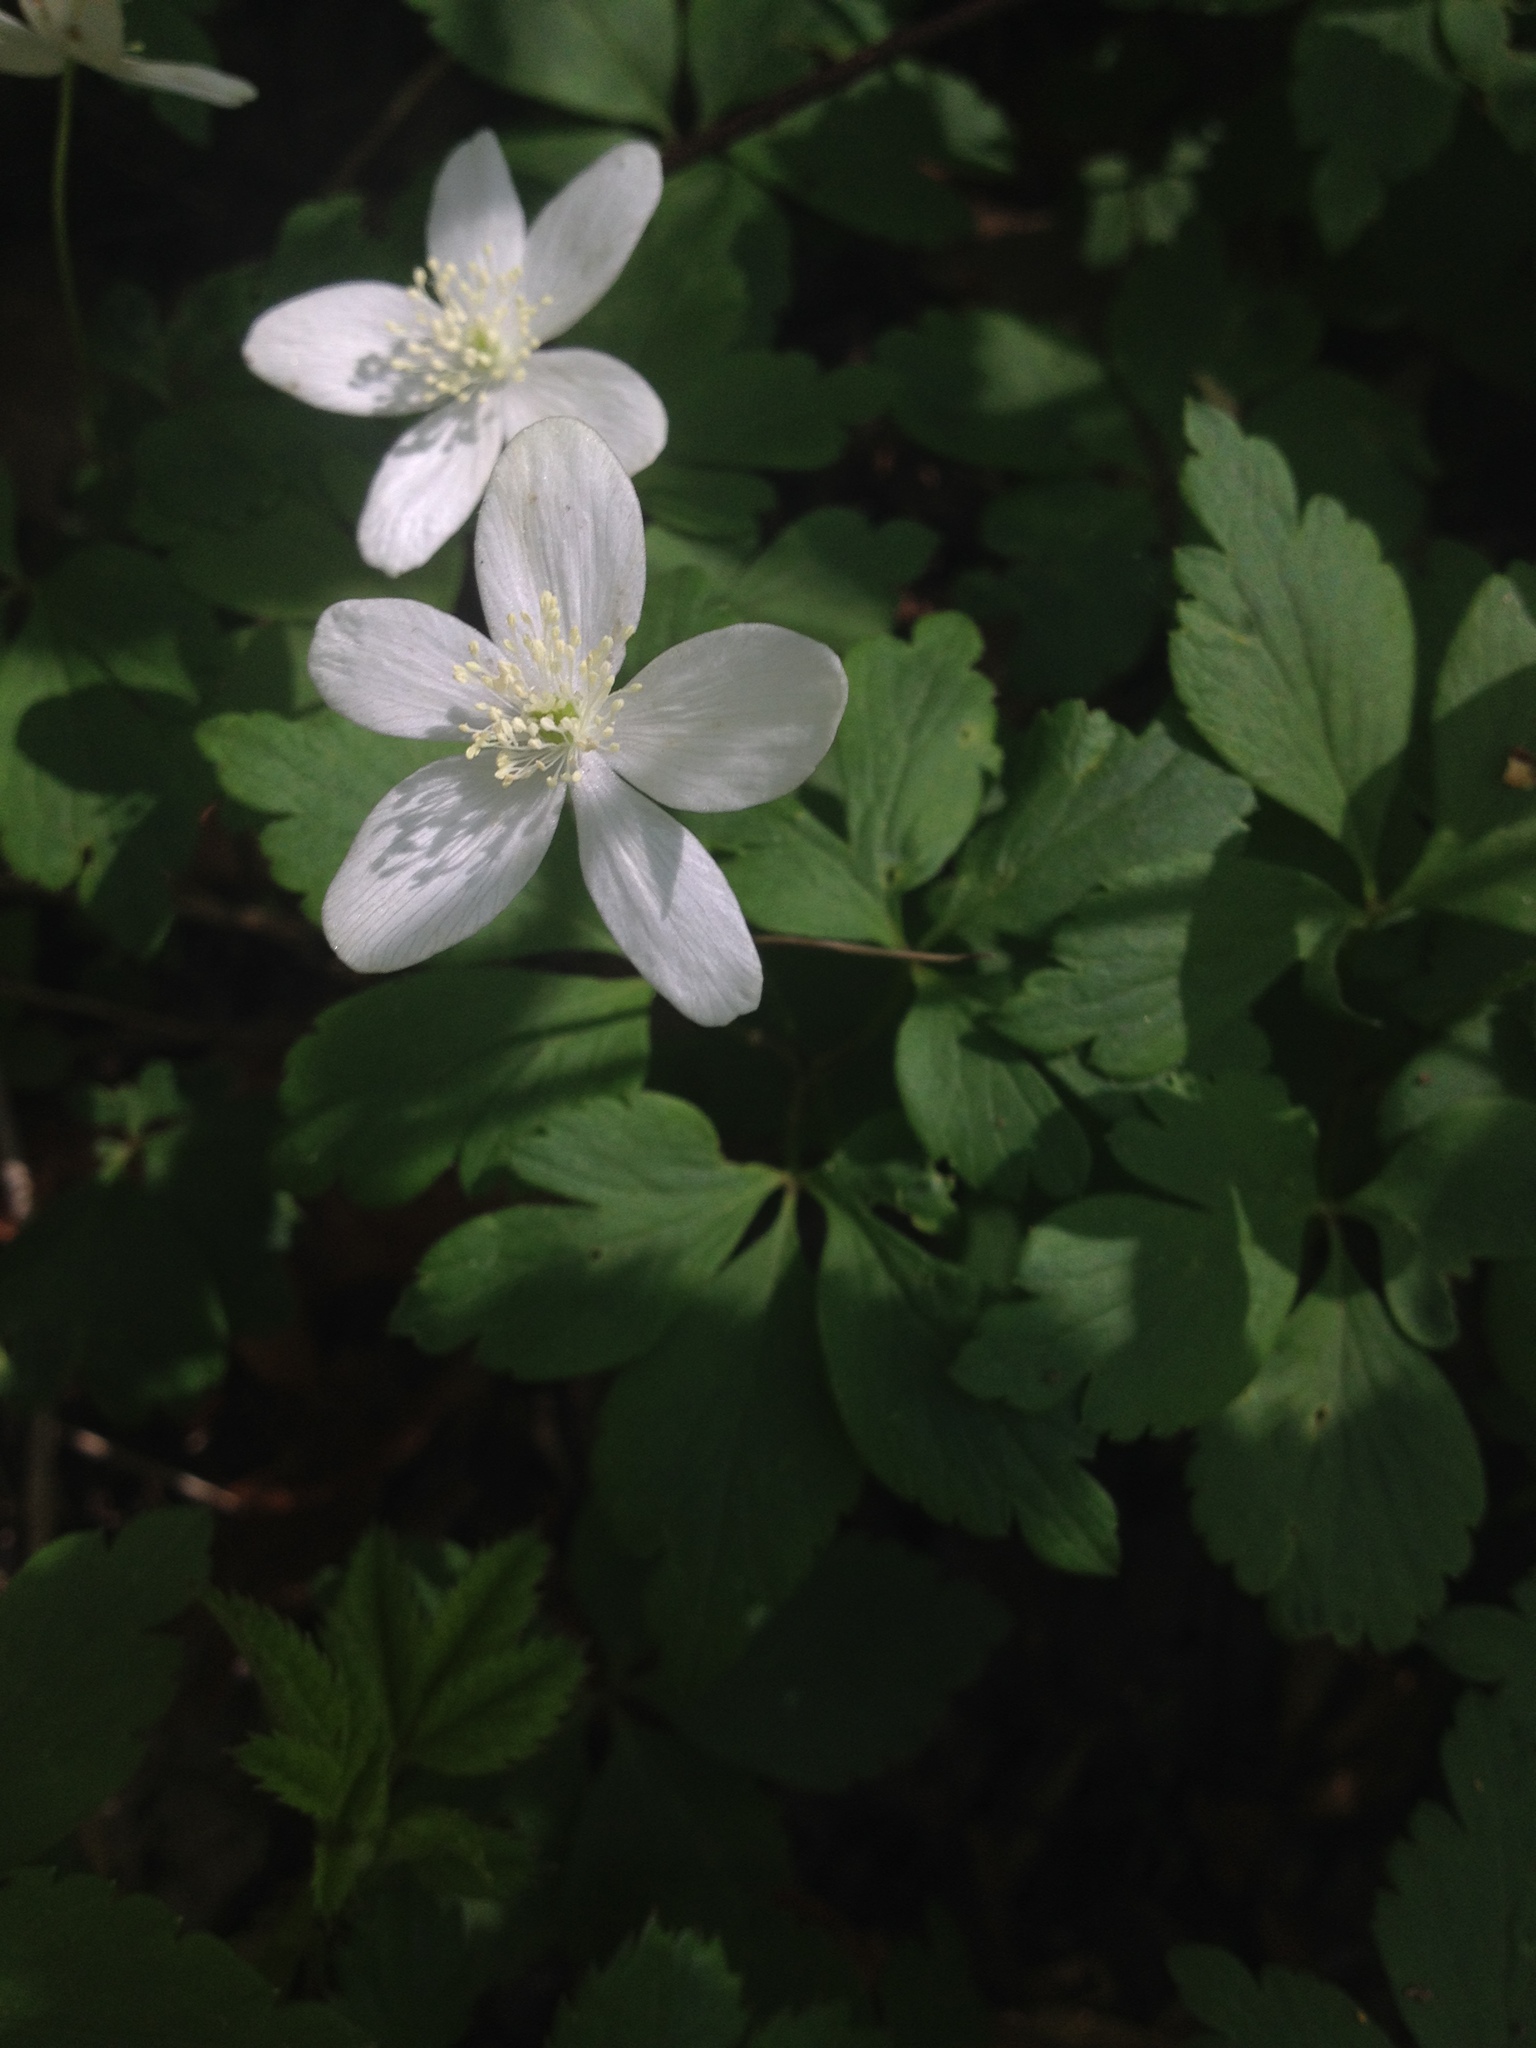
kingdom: Plantae
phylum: Tracheophyta
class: Magnoliopsida
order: Ranunculales
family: Ranunculaceae
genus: Anemone
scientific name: Anemone quinquefolia
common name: Wood anemone
